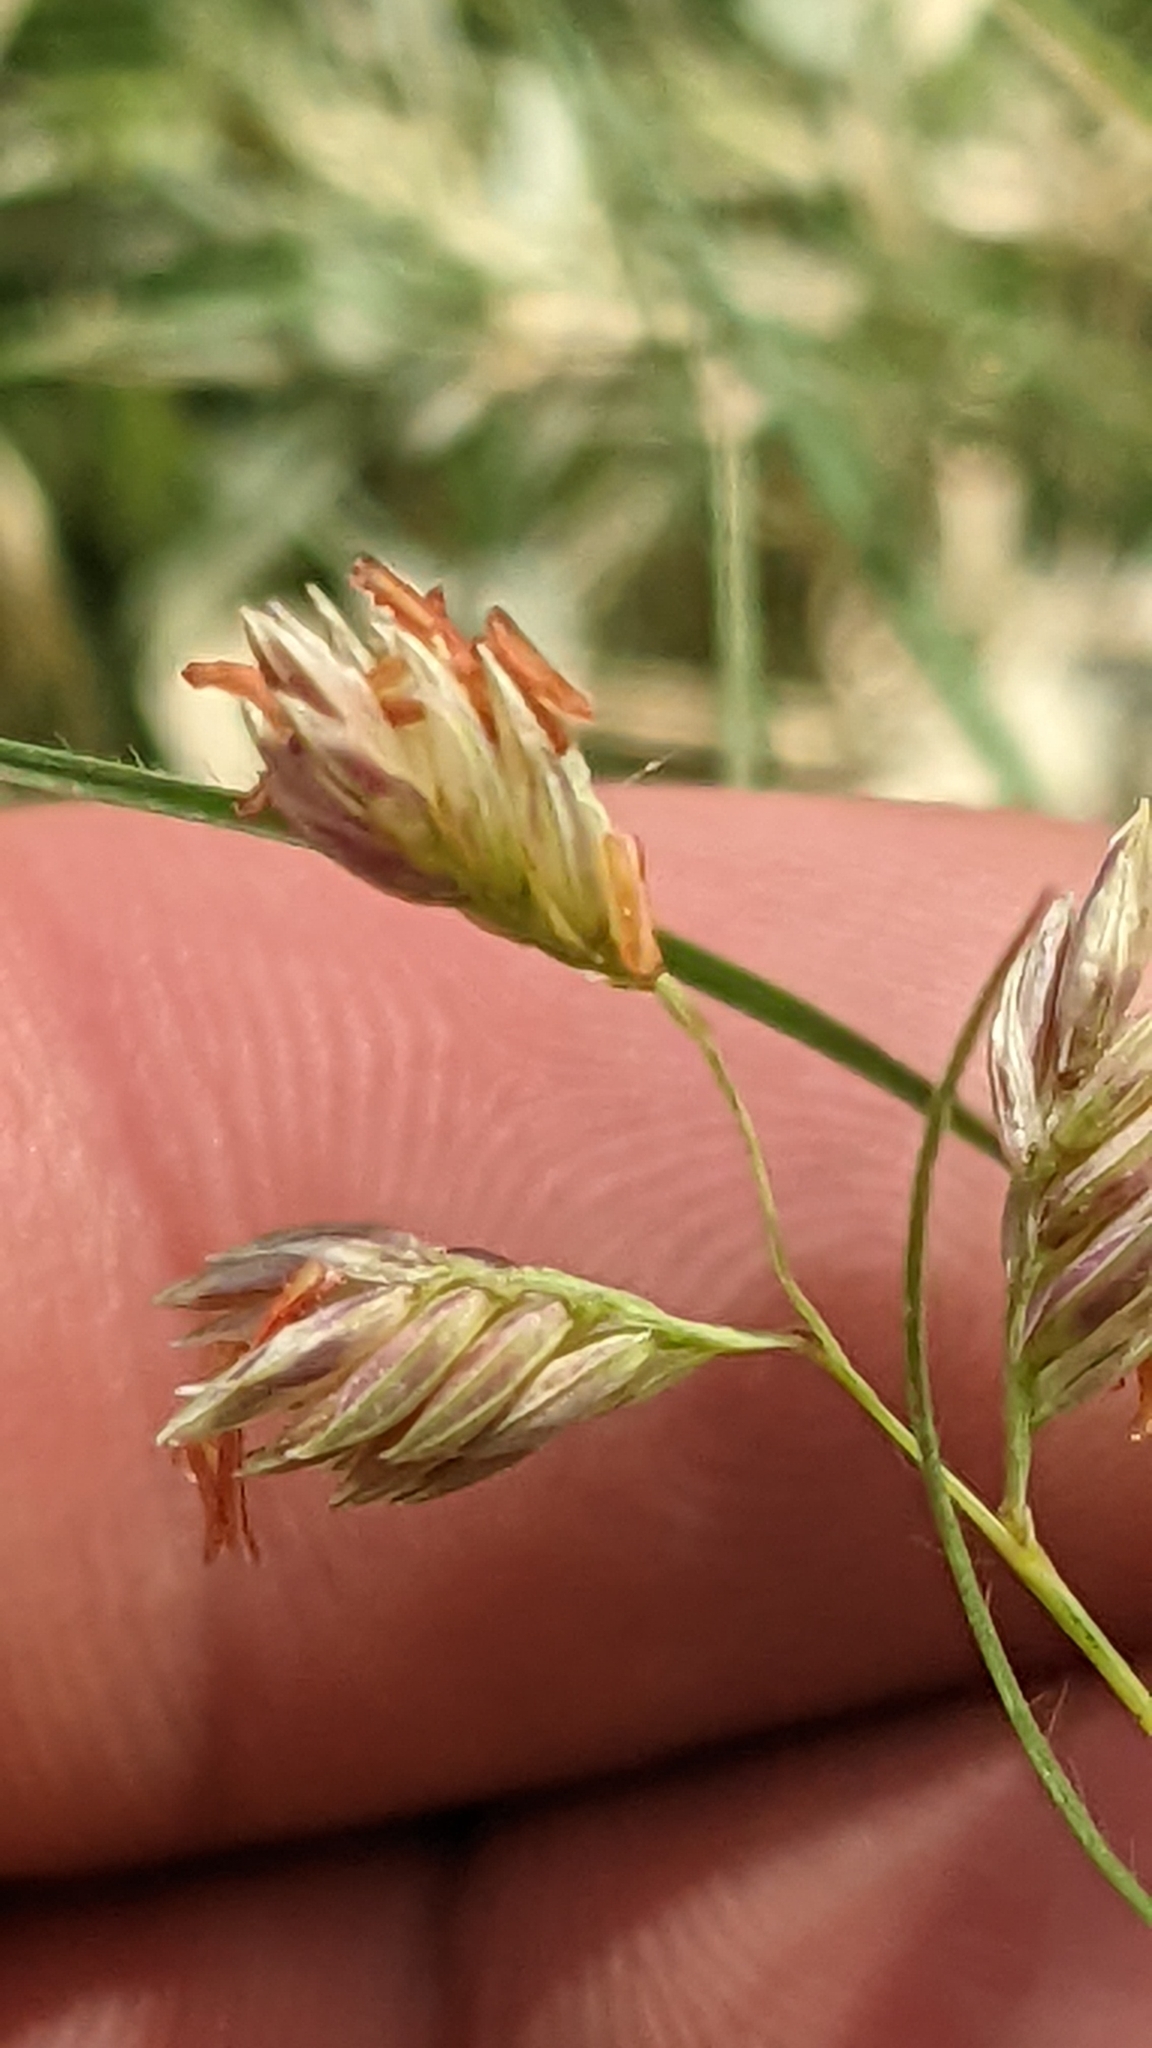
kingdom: Plantae
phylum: Tracheophyta
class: Liliopsida
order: Poales
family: Poaceae
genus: Bouteloua
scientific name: Bouteloua dactyloides
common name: Buffalo grass
